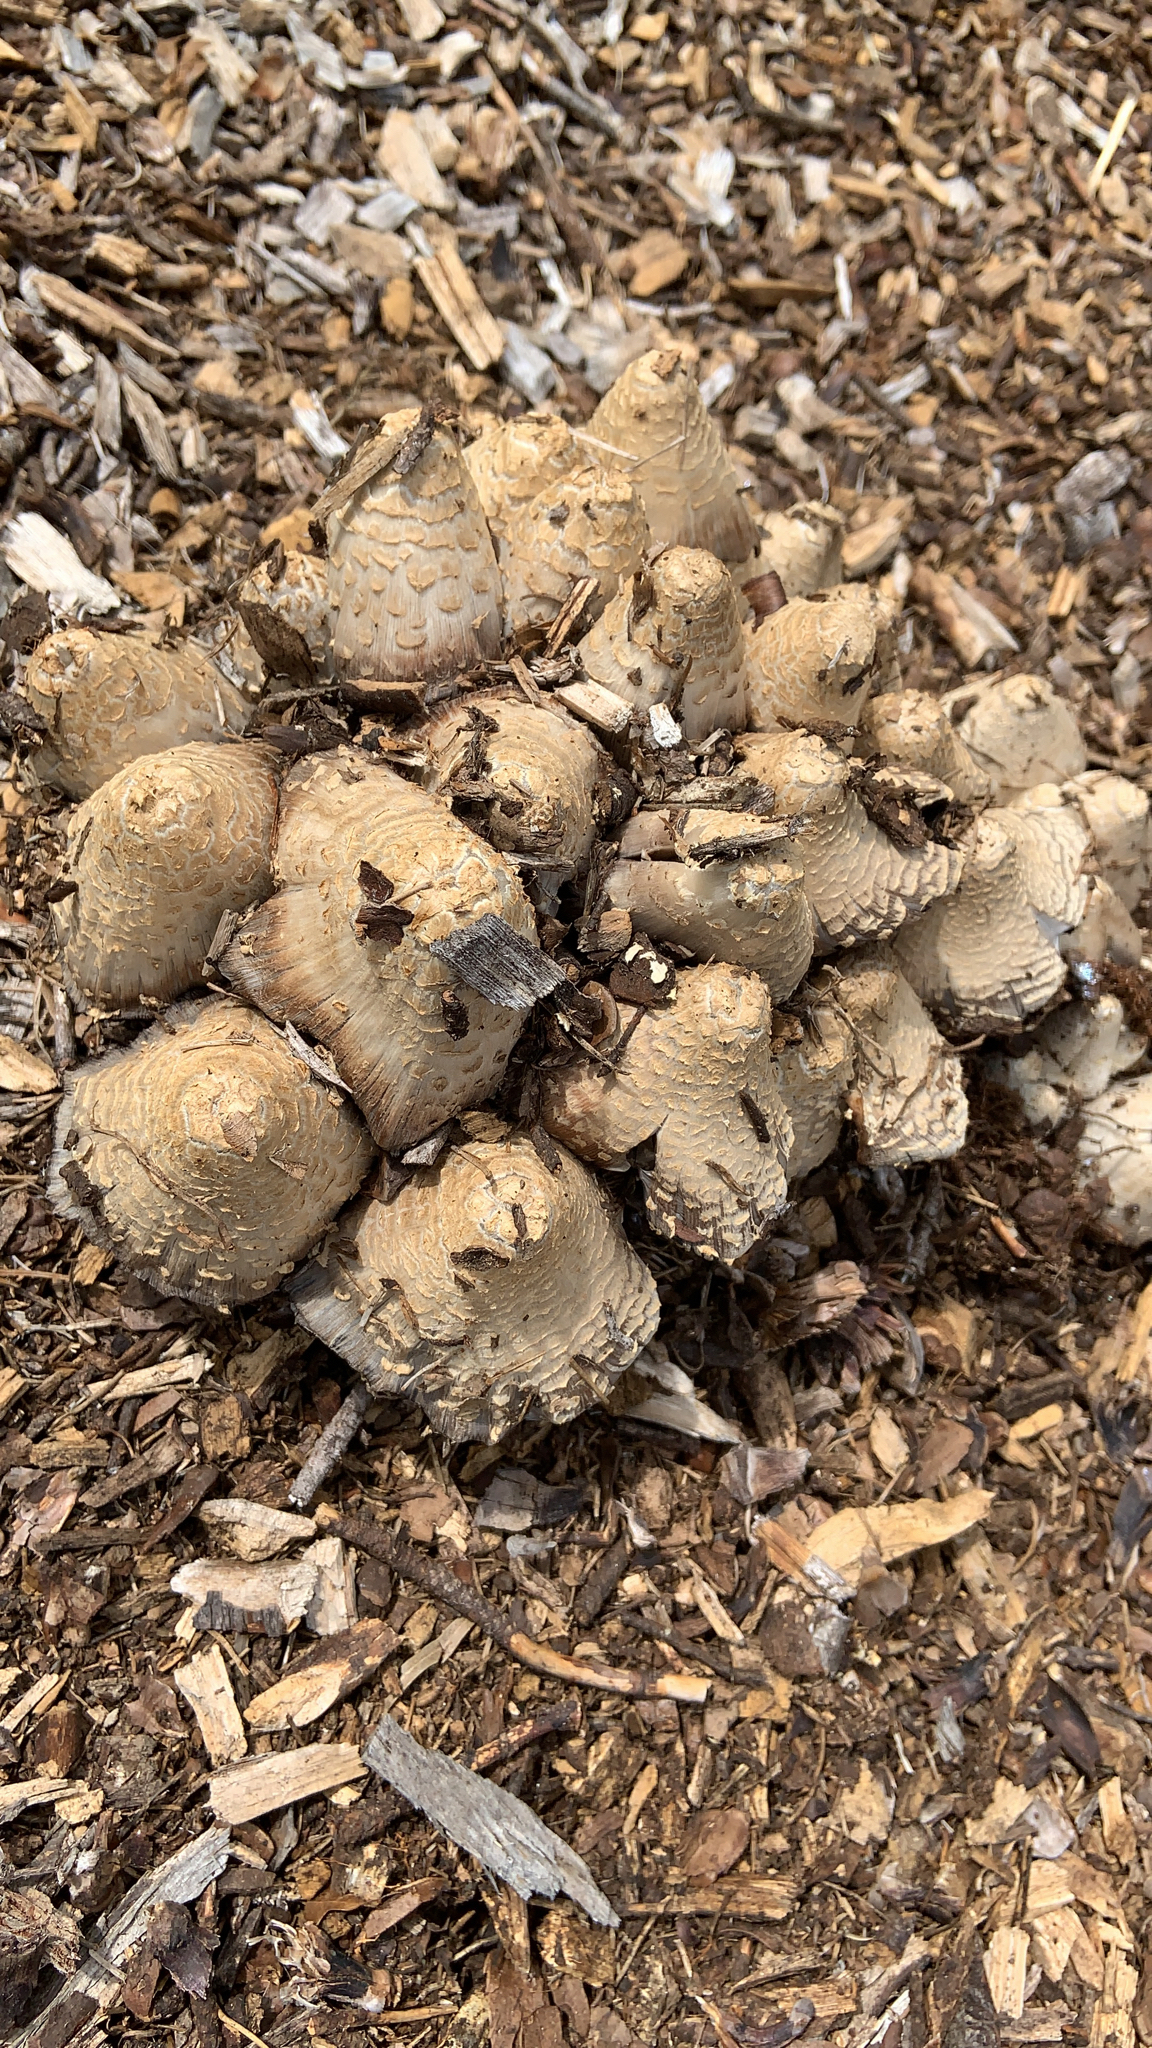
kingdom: Fungi
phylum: Basidiomycota
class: Agaricomycetes
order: Agaricales
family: Psathyrellaceae
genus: Coprinellus
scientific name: Coprinellus flocculosus
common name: Flocculose inkcap
